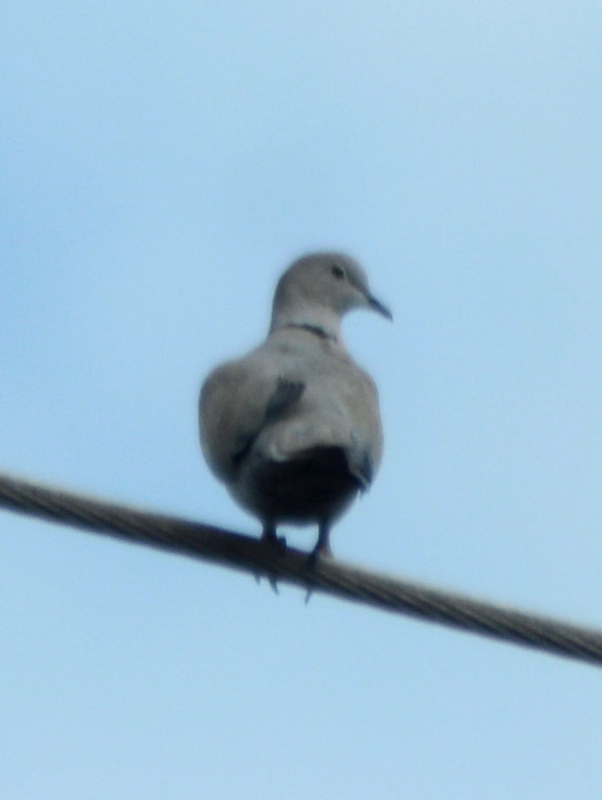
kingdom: Animalia
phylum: Chordata
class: Aves
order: Columbiformes
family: Columbidae
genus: Streptopelia
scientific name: Streptopelia decaocto
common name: Eurasian collared dove
